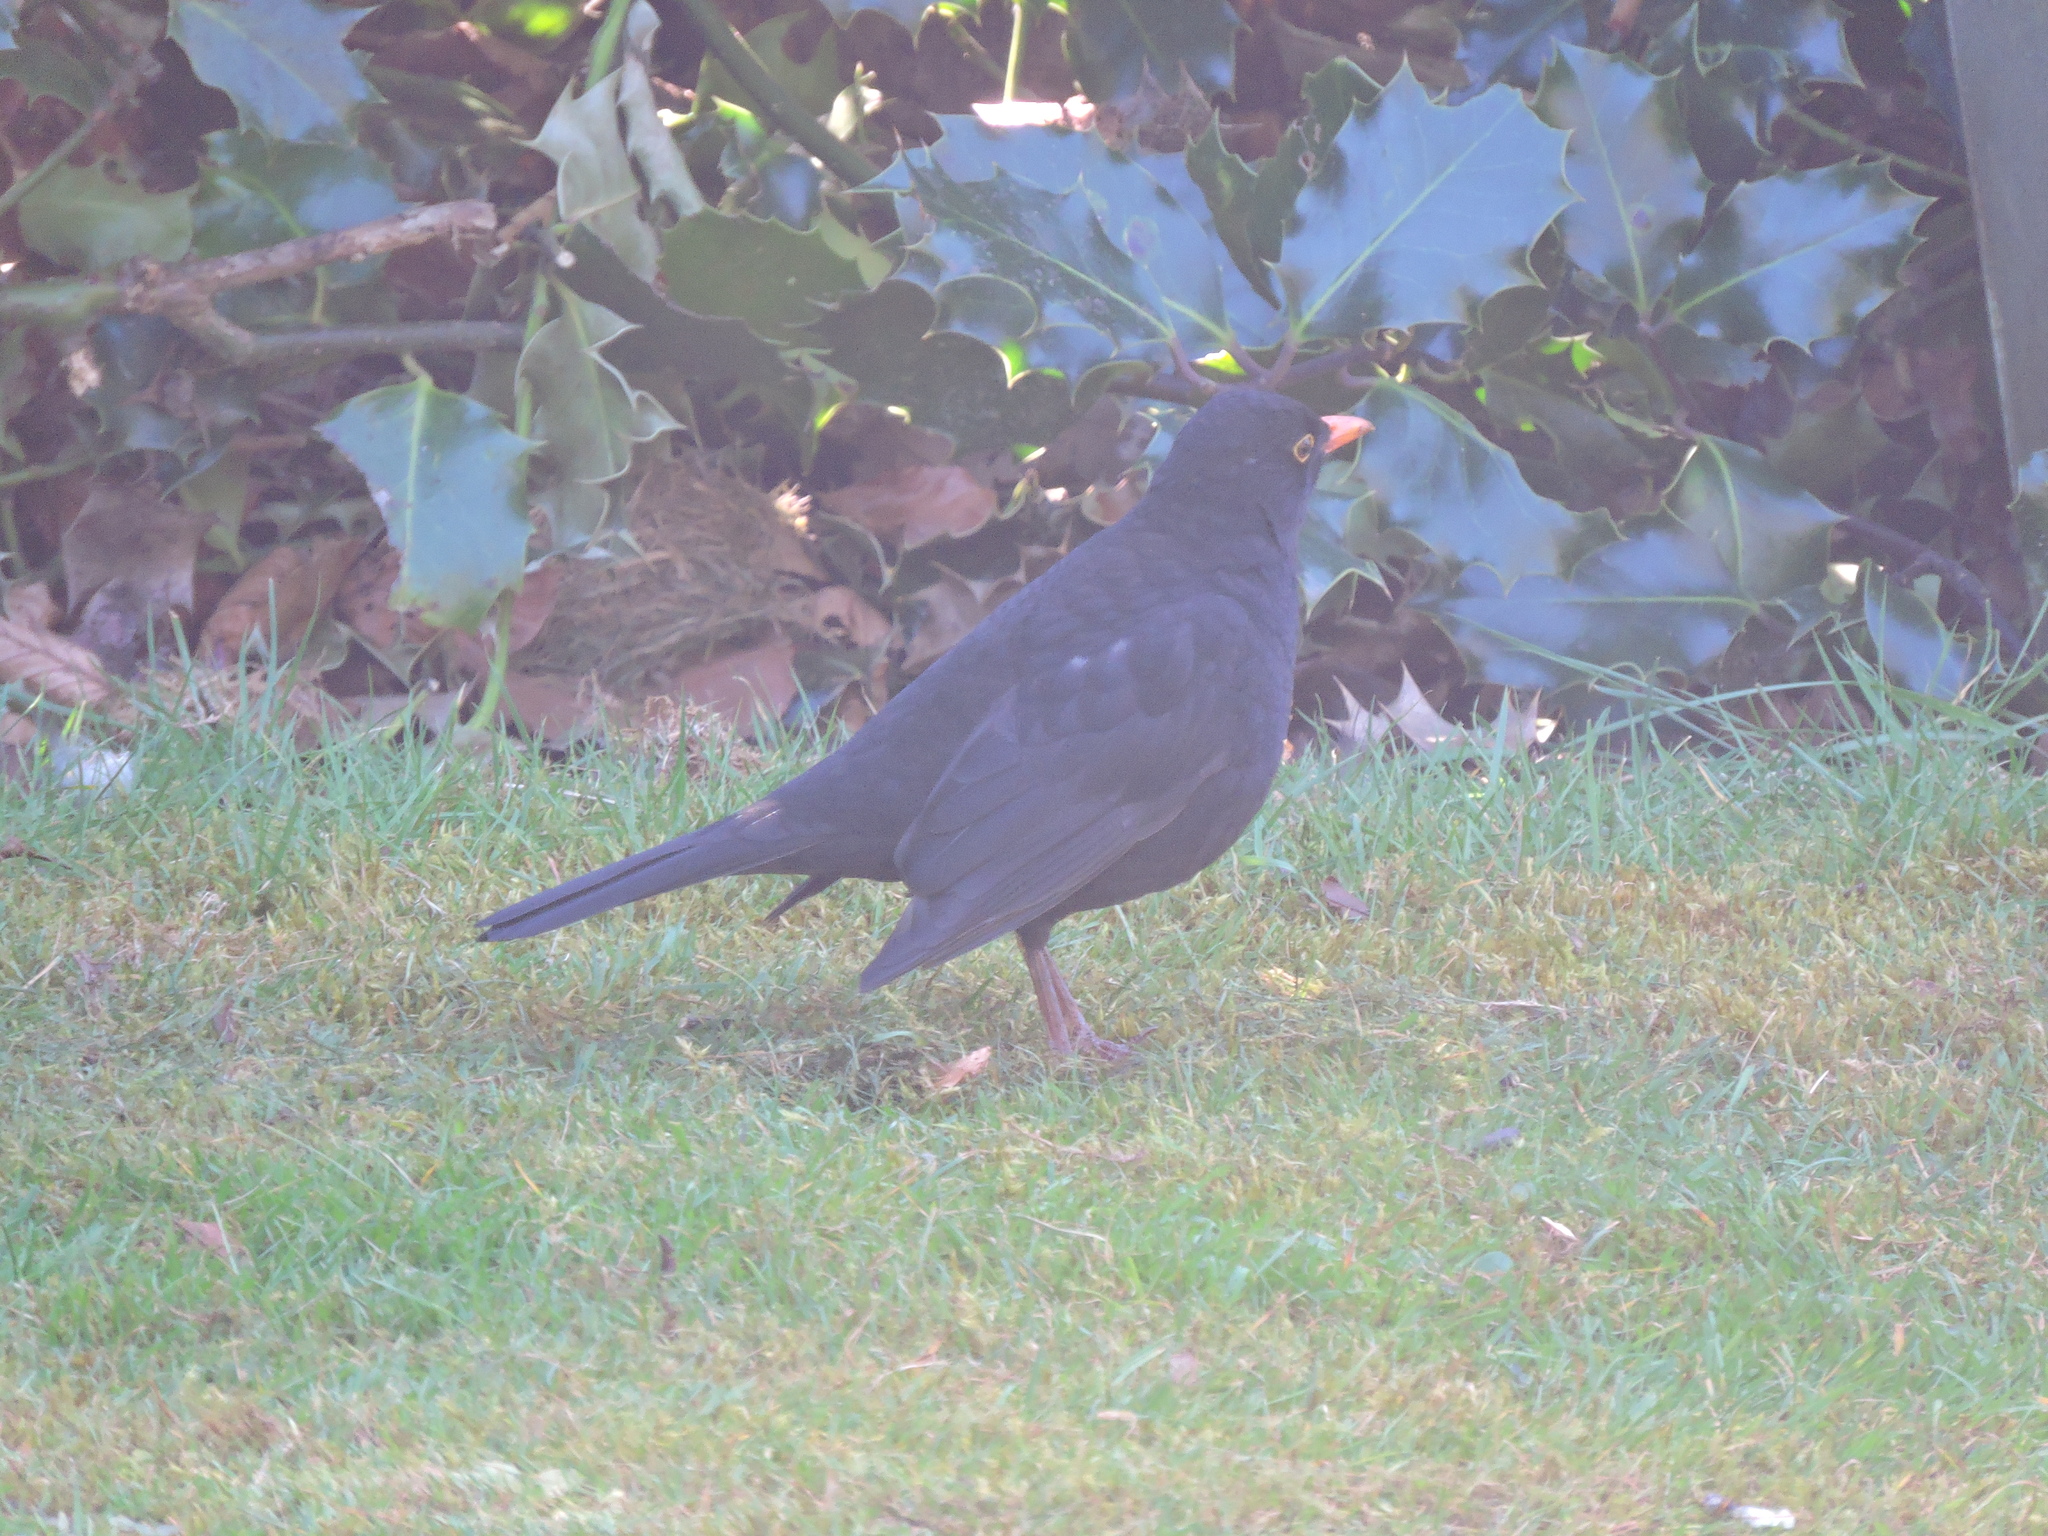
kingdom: Animalia
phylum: Chordata
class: Aves
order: Passeriformes
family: Turdidae
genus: Turdus
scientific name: Turdus merula
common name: Common blackbird
